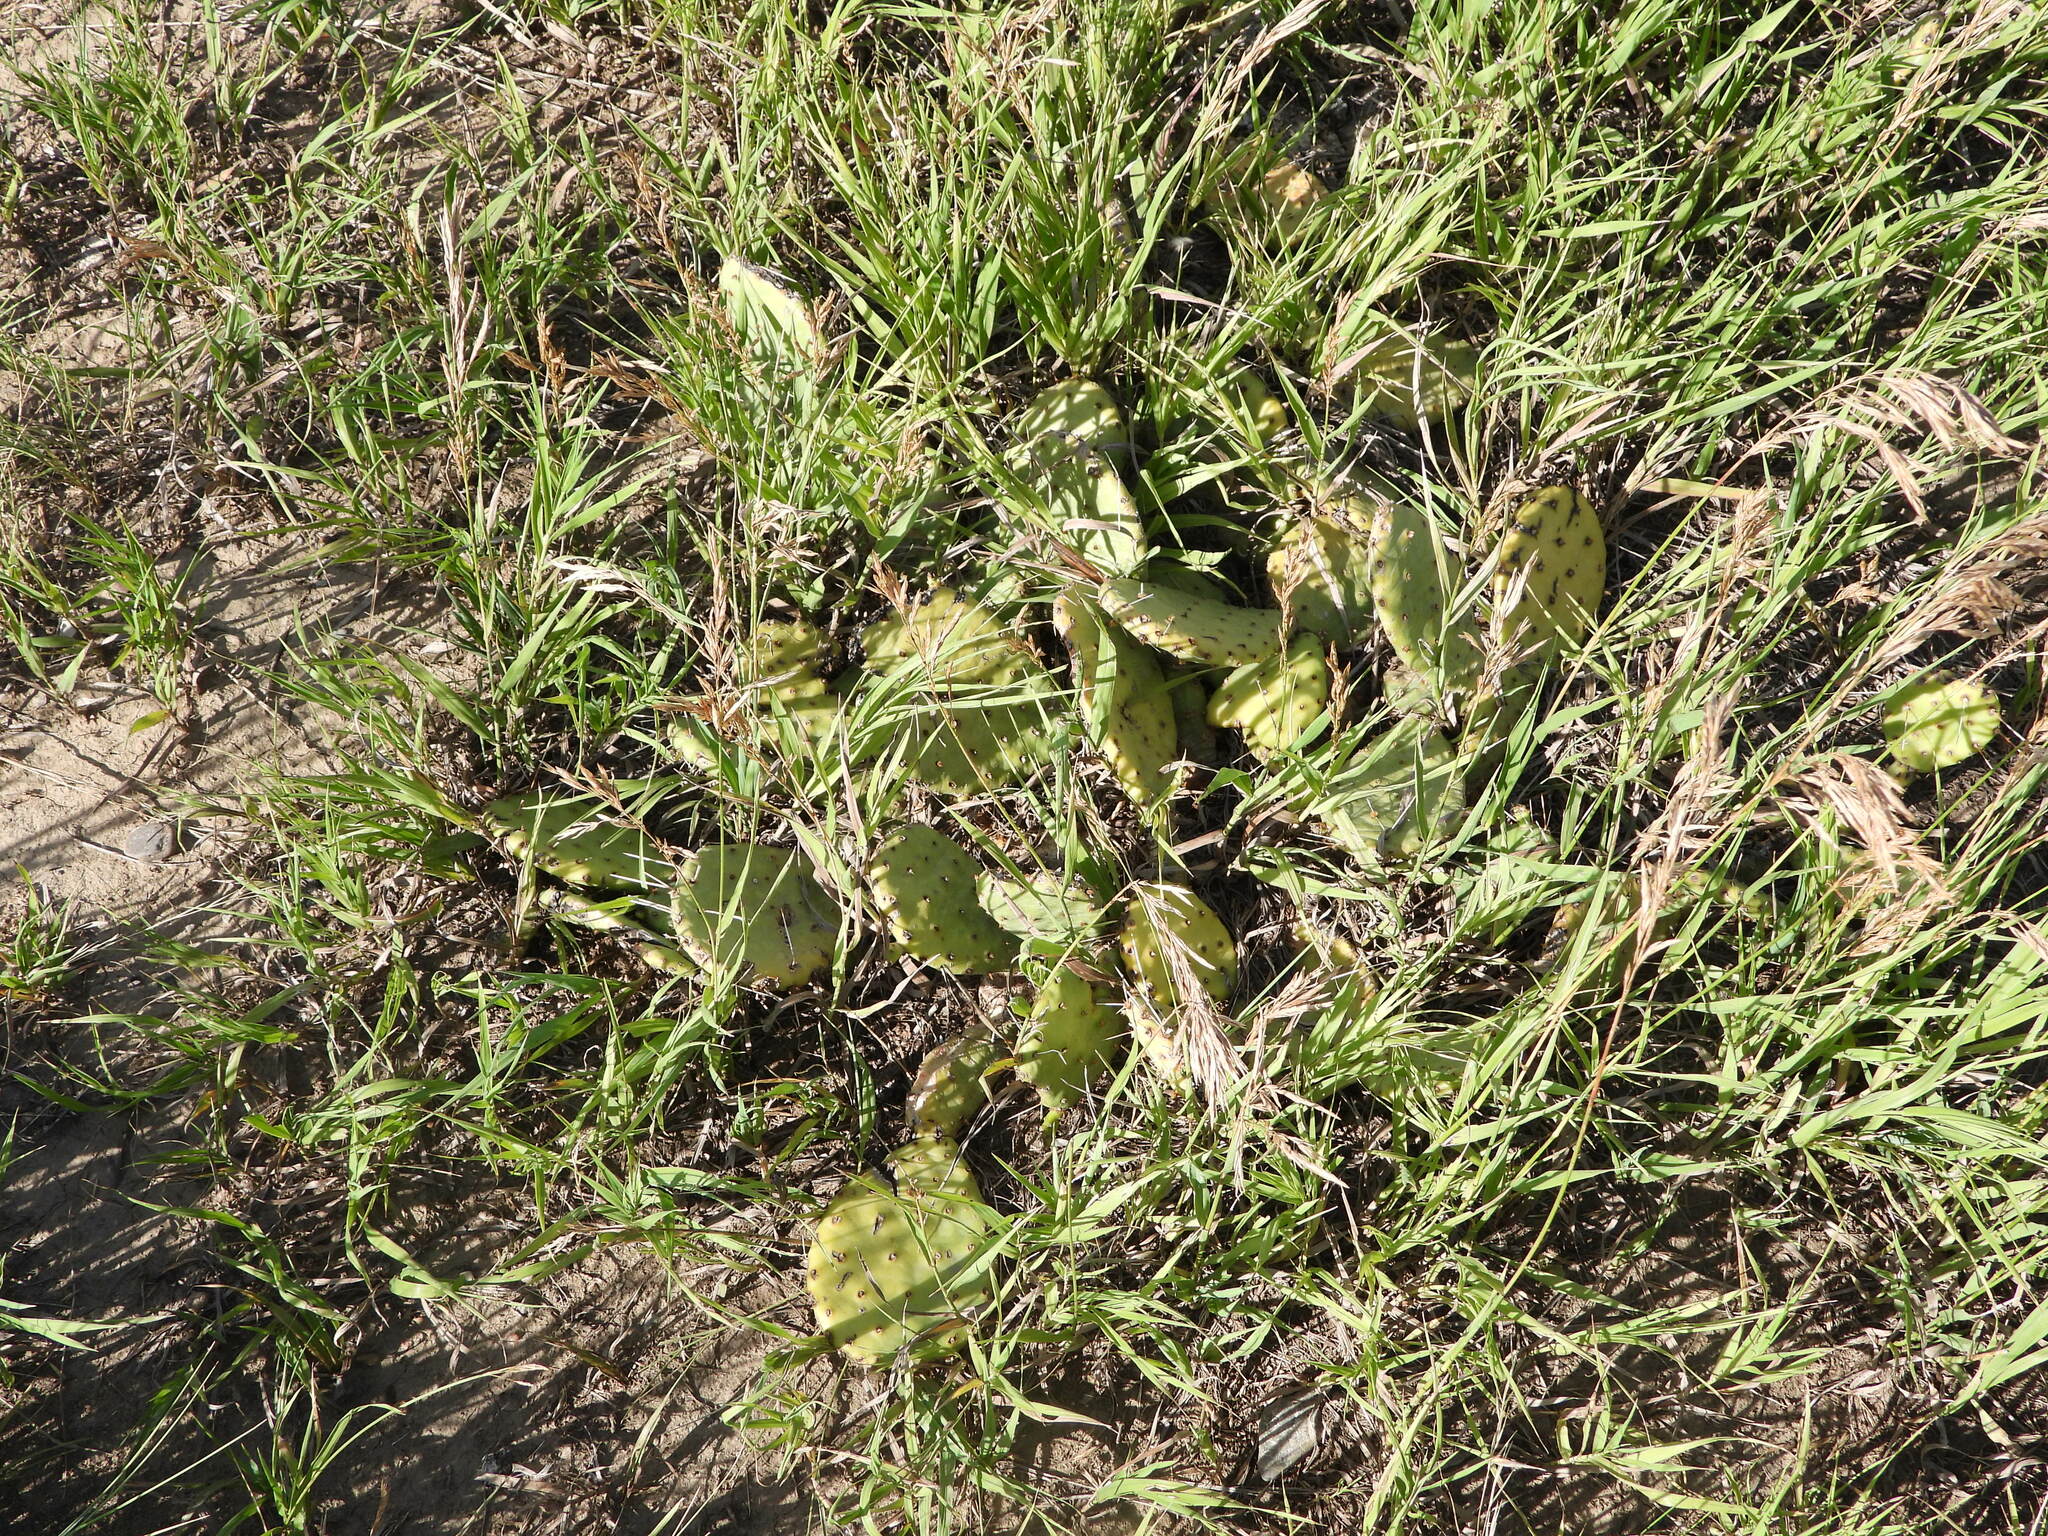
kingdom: Plantae
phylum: Tracheophyta
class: Magnoliopsida
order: Caryophyllales
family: Cactaceae
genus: Opuntia
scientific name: Opuntia macrorhiza
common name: Grassland pricklypear
